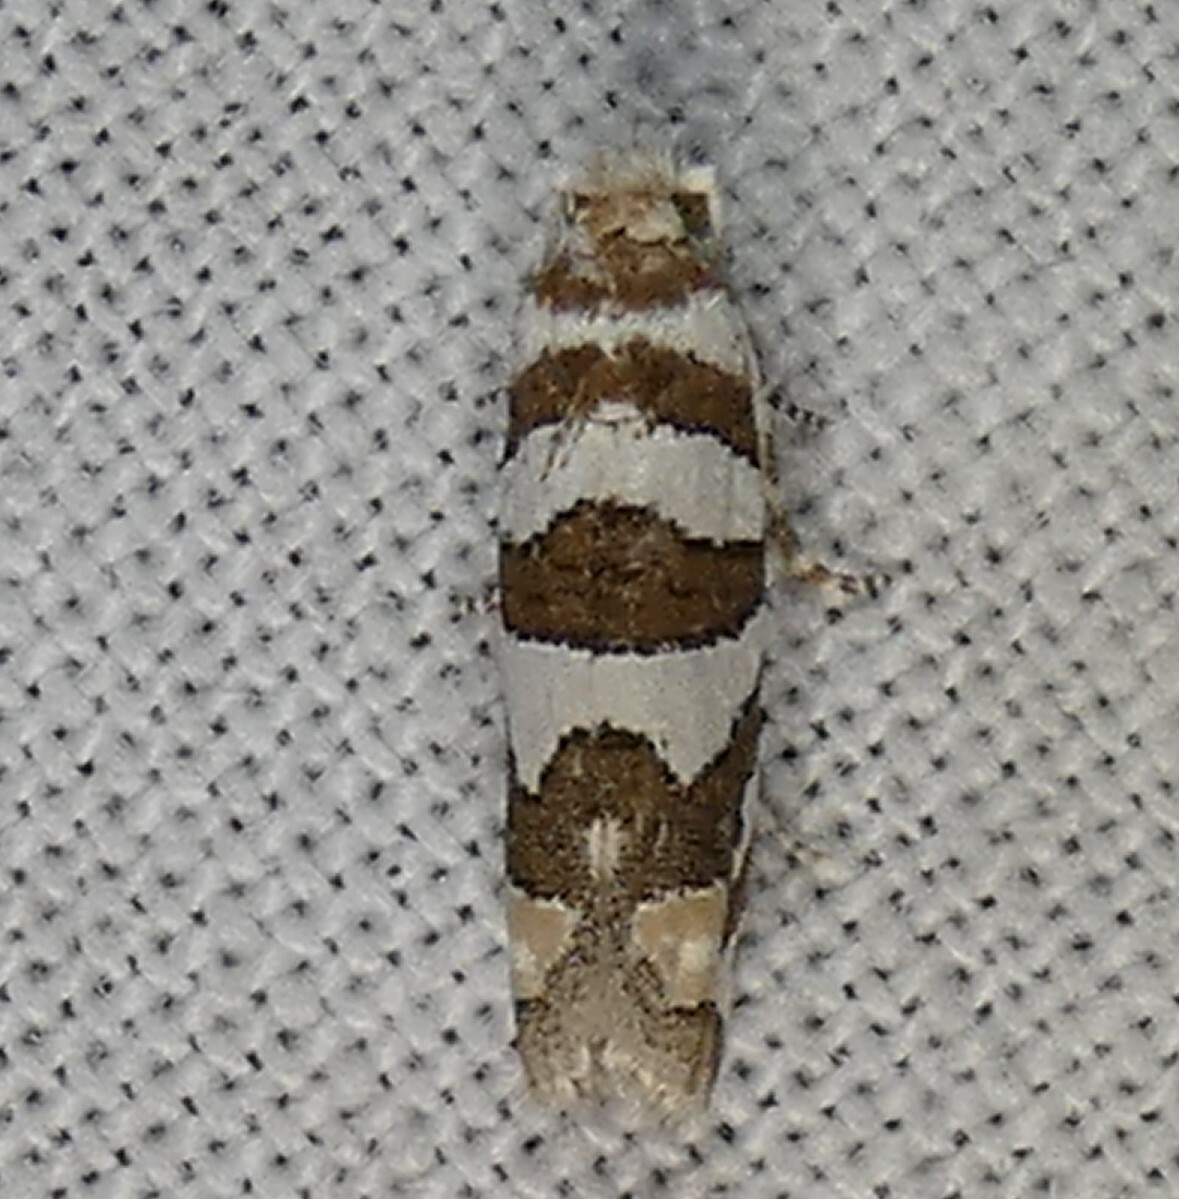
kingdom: Animalia
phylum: Arthropoda
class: Insecta
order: Lepidoptera
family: Tortricidae
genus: Pelochrista
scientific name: Pelochrista robinsonana
